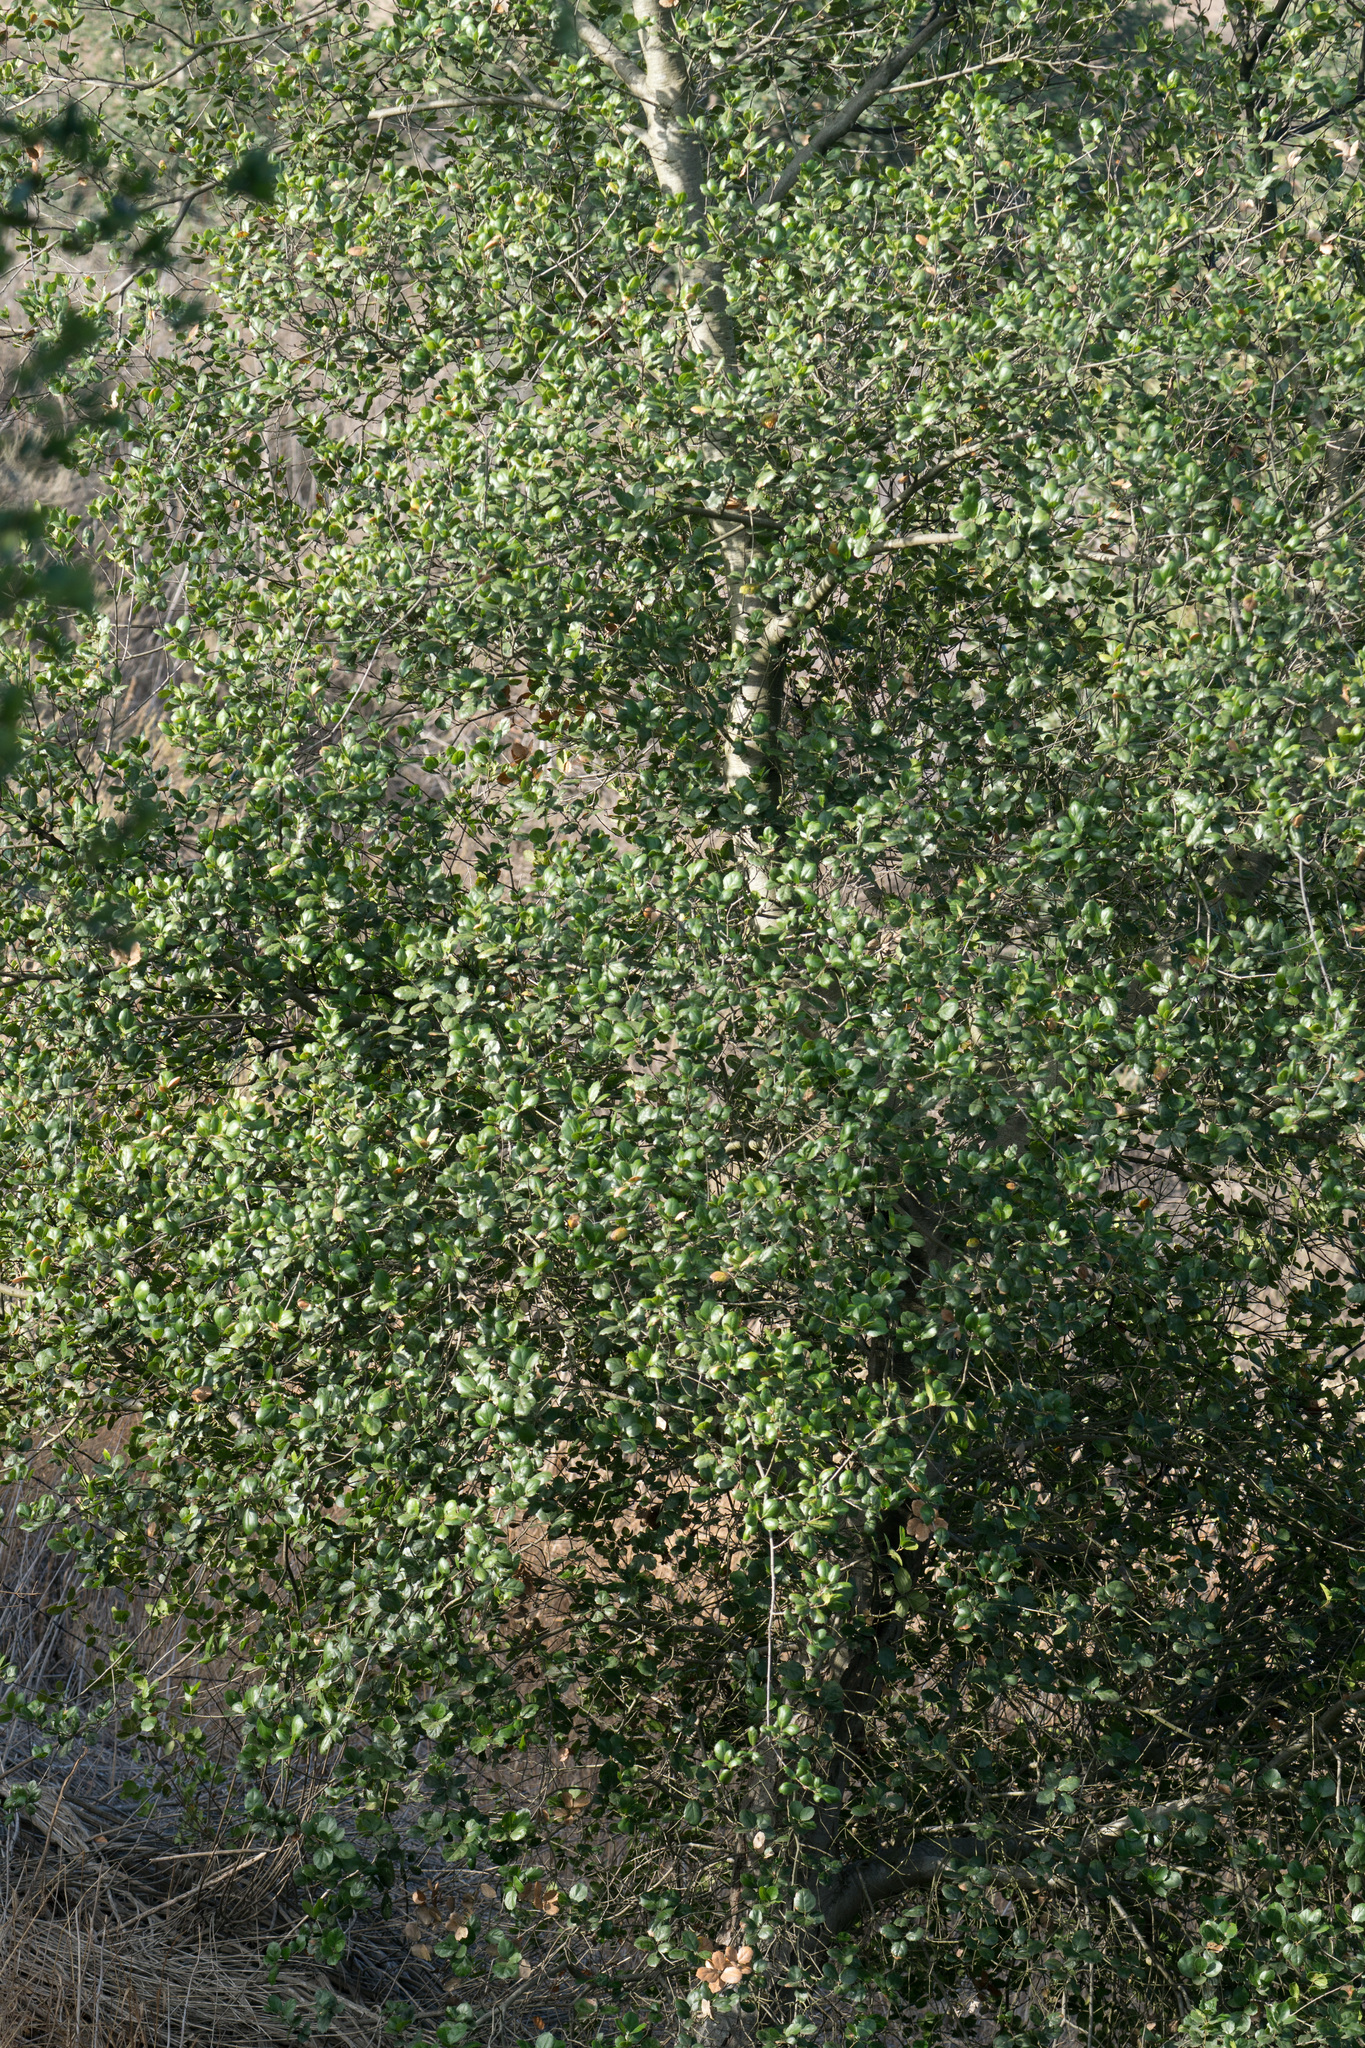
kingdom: Plantae
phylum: Tracheophyta
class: Magnoliopsida
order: Fagales
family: Fagaceae
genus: Quercus
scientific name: Quercus agrifolia
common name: California live oak
